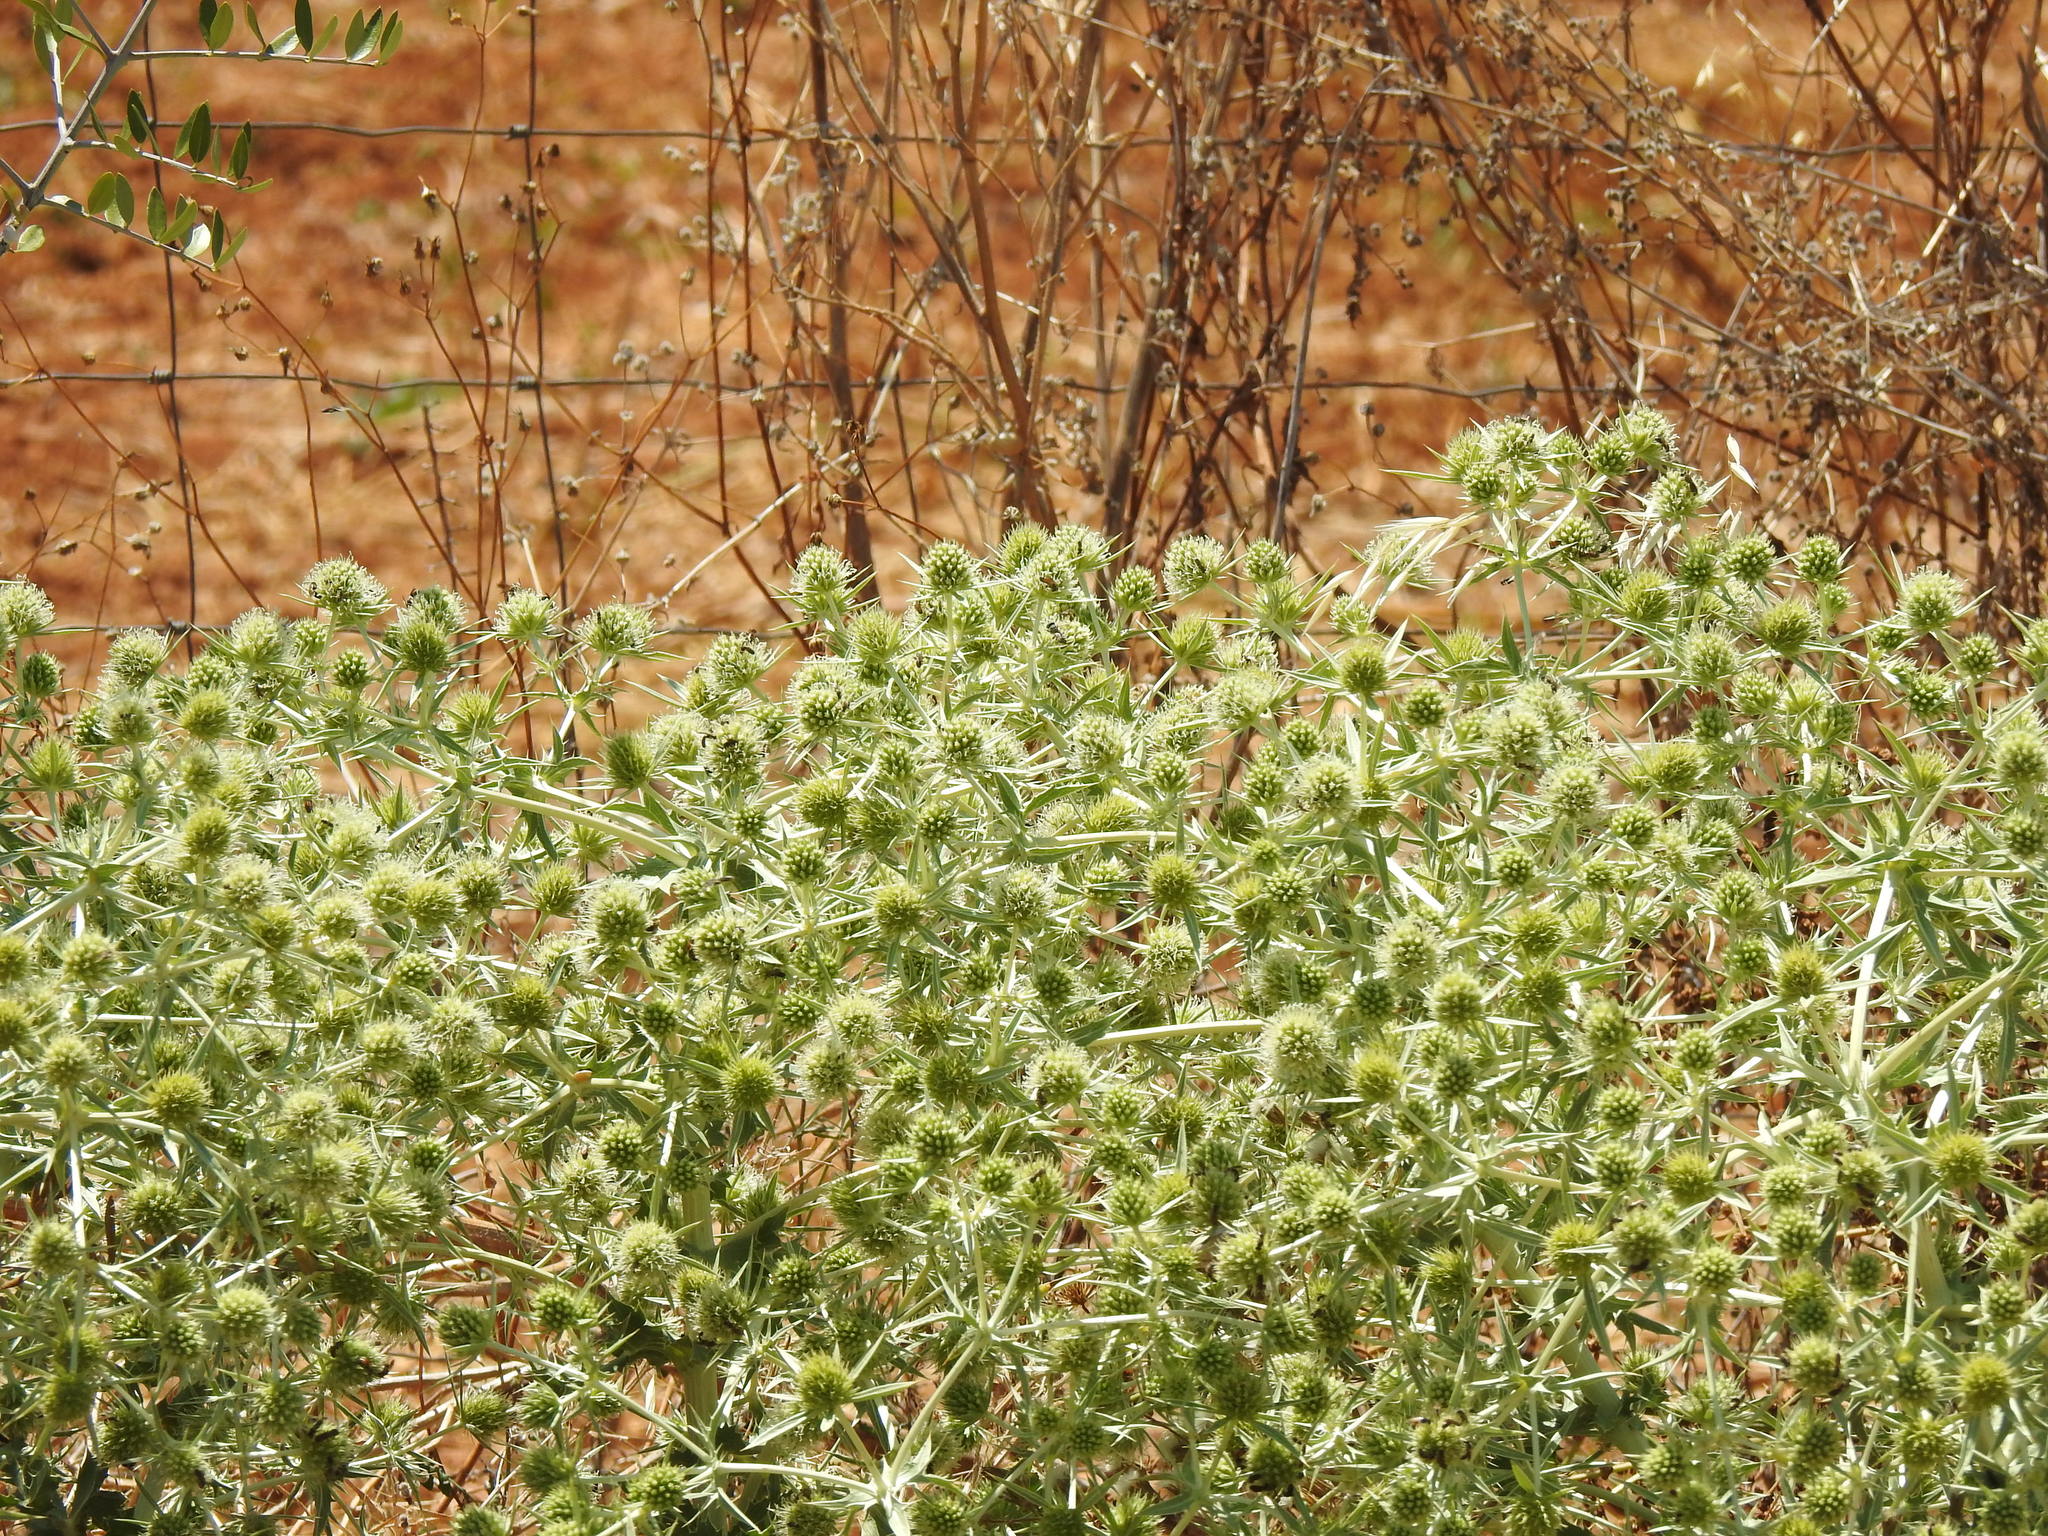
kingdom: Plantae
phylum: Tracheophyta
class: Magnoliopsida
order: Apiales
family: Apiaceae
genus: Eryngium
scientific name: Eryngium campestre
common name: Field eryngo
